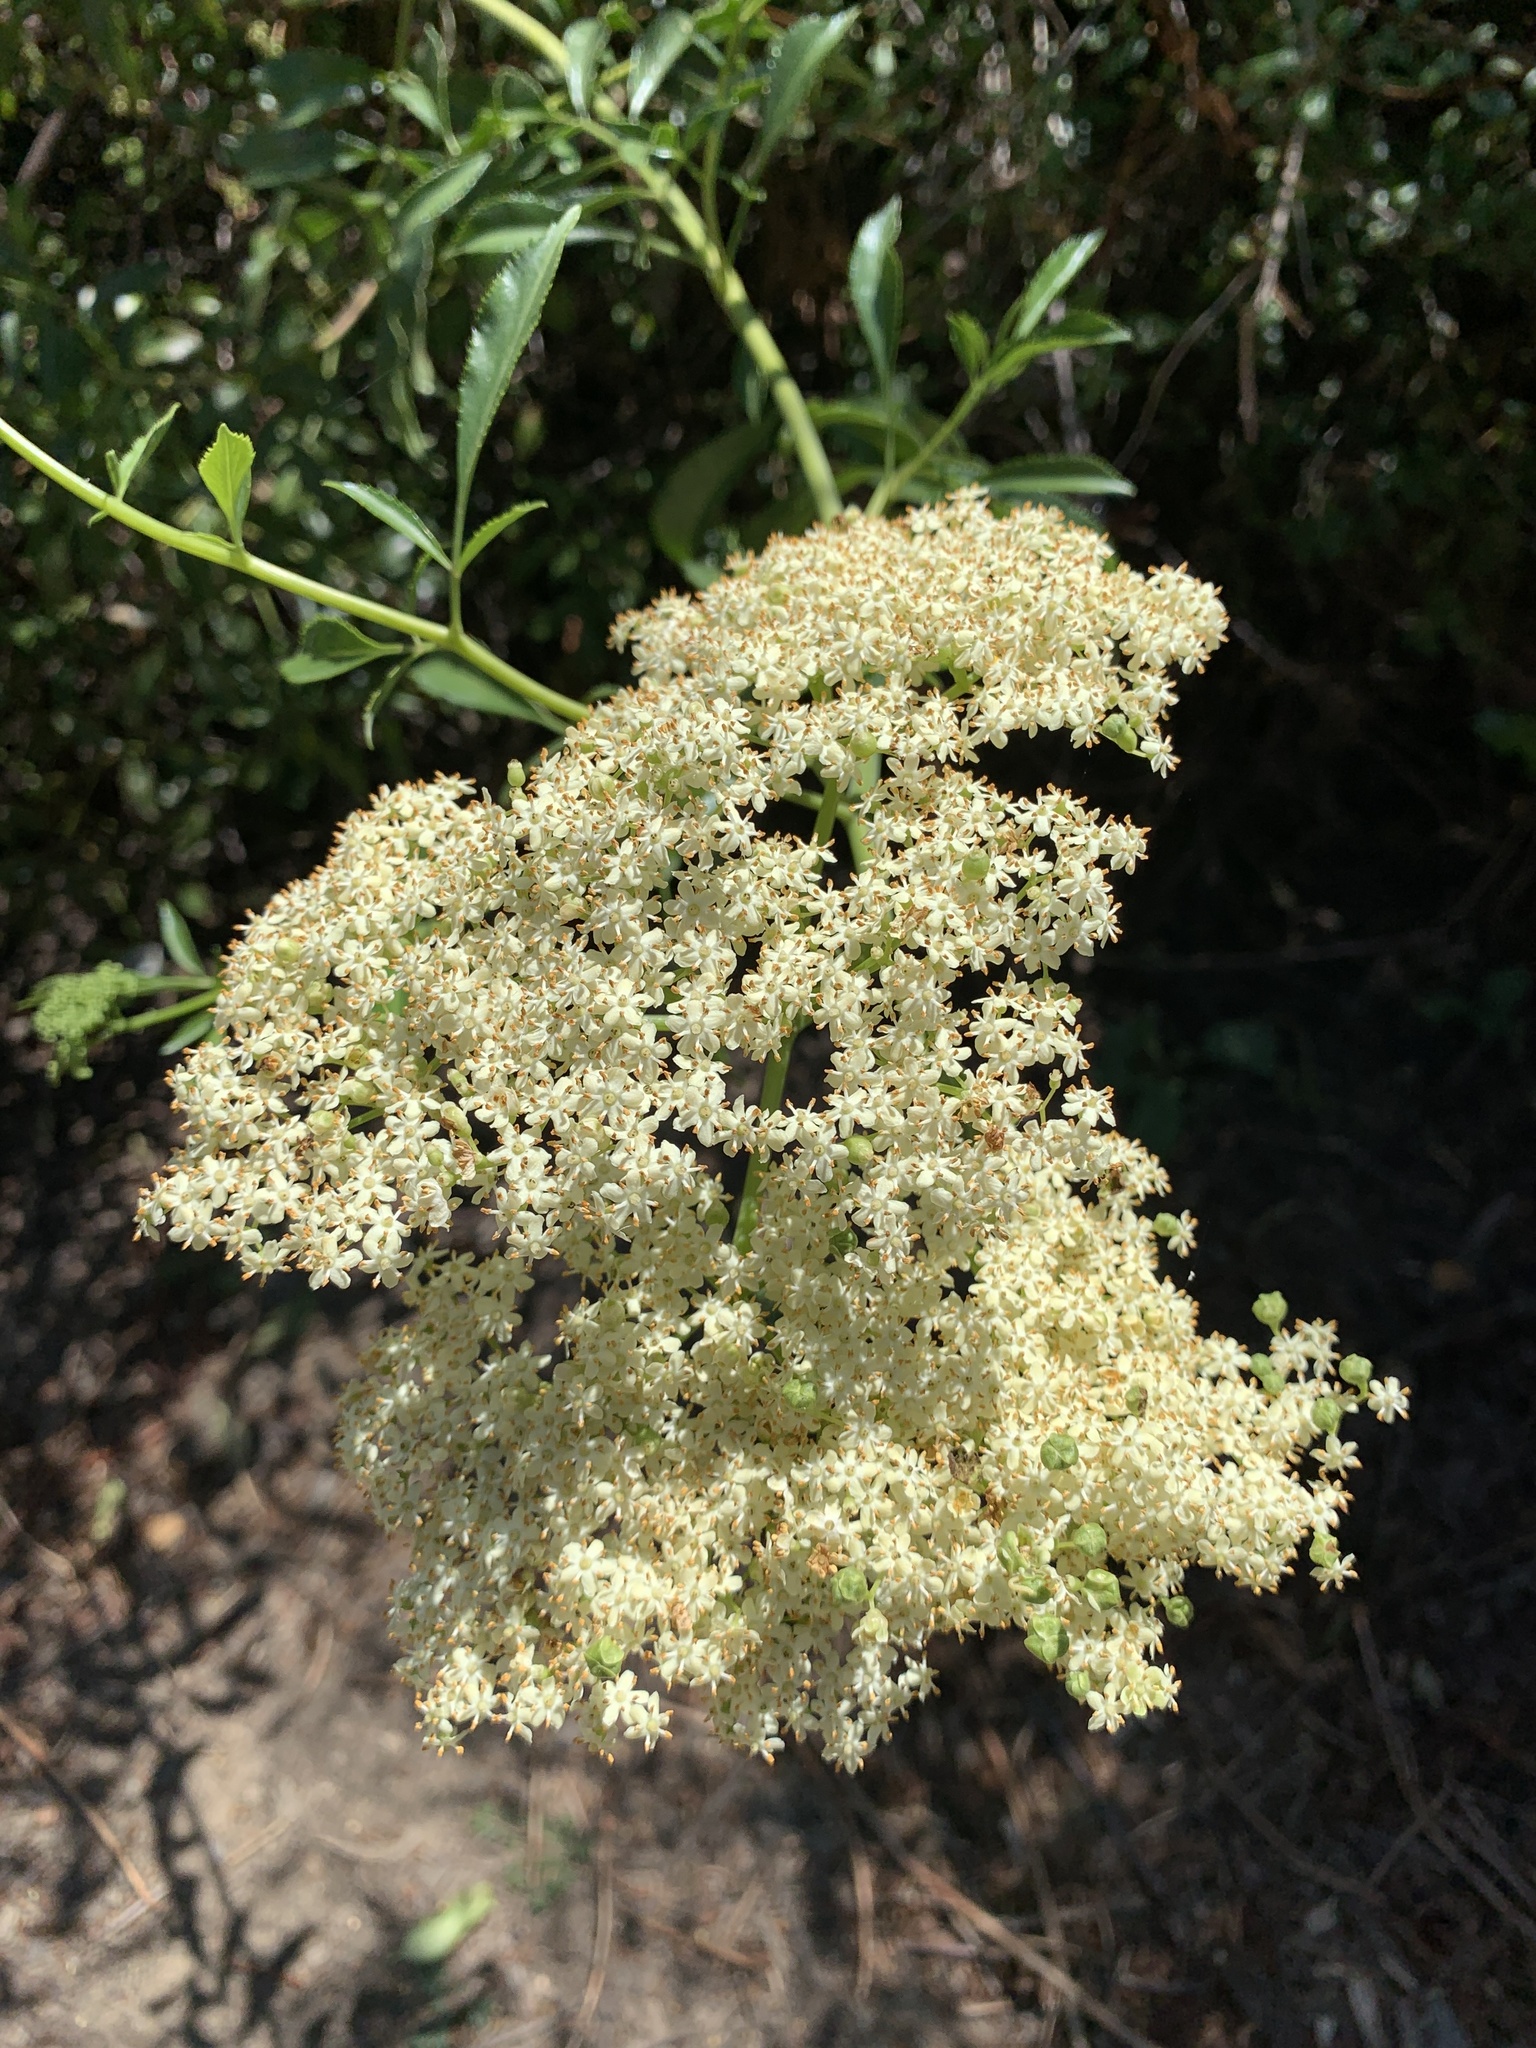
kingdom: Plantae
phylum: Tracheophyta
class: Magnoliopsida
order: Dipsacales
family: Viburnaceae
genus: Sambucus
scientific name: Sambucus cerulea
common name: Blue elder
